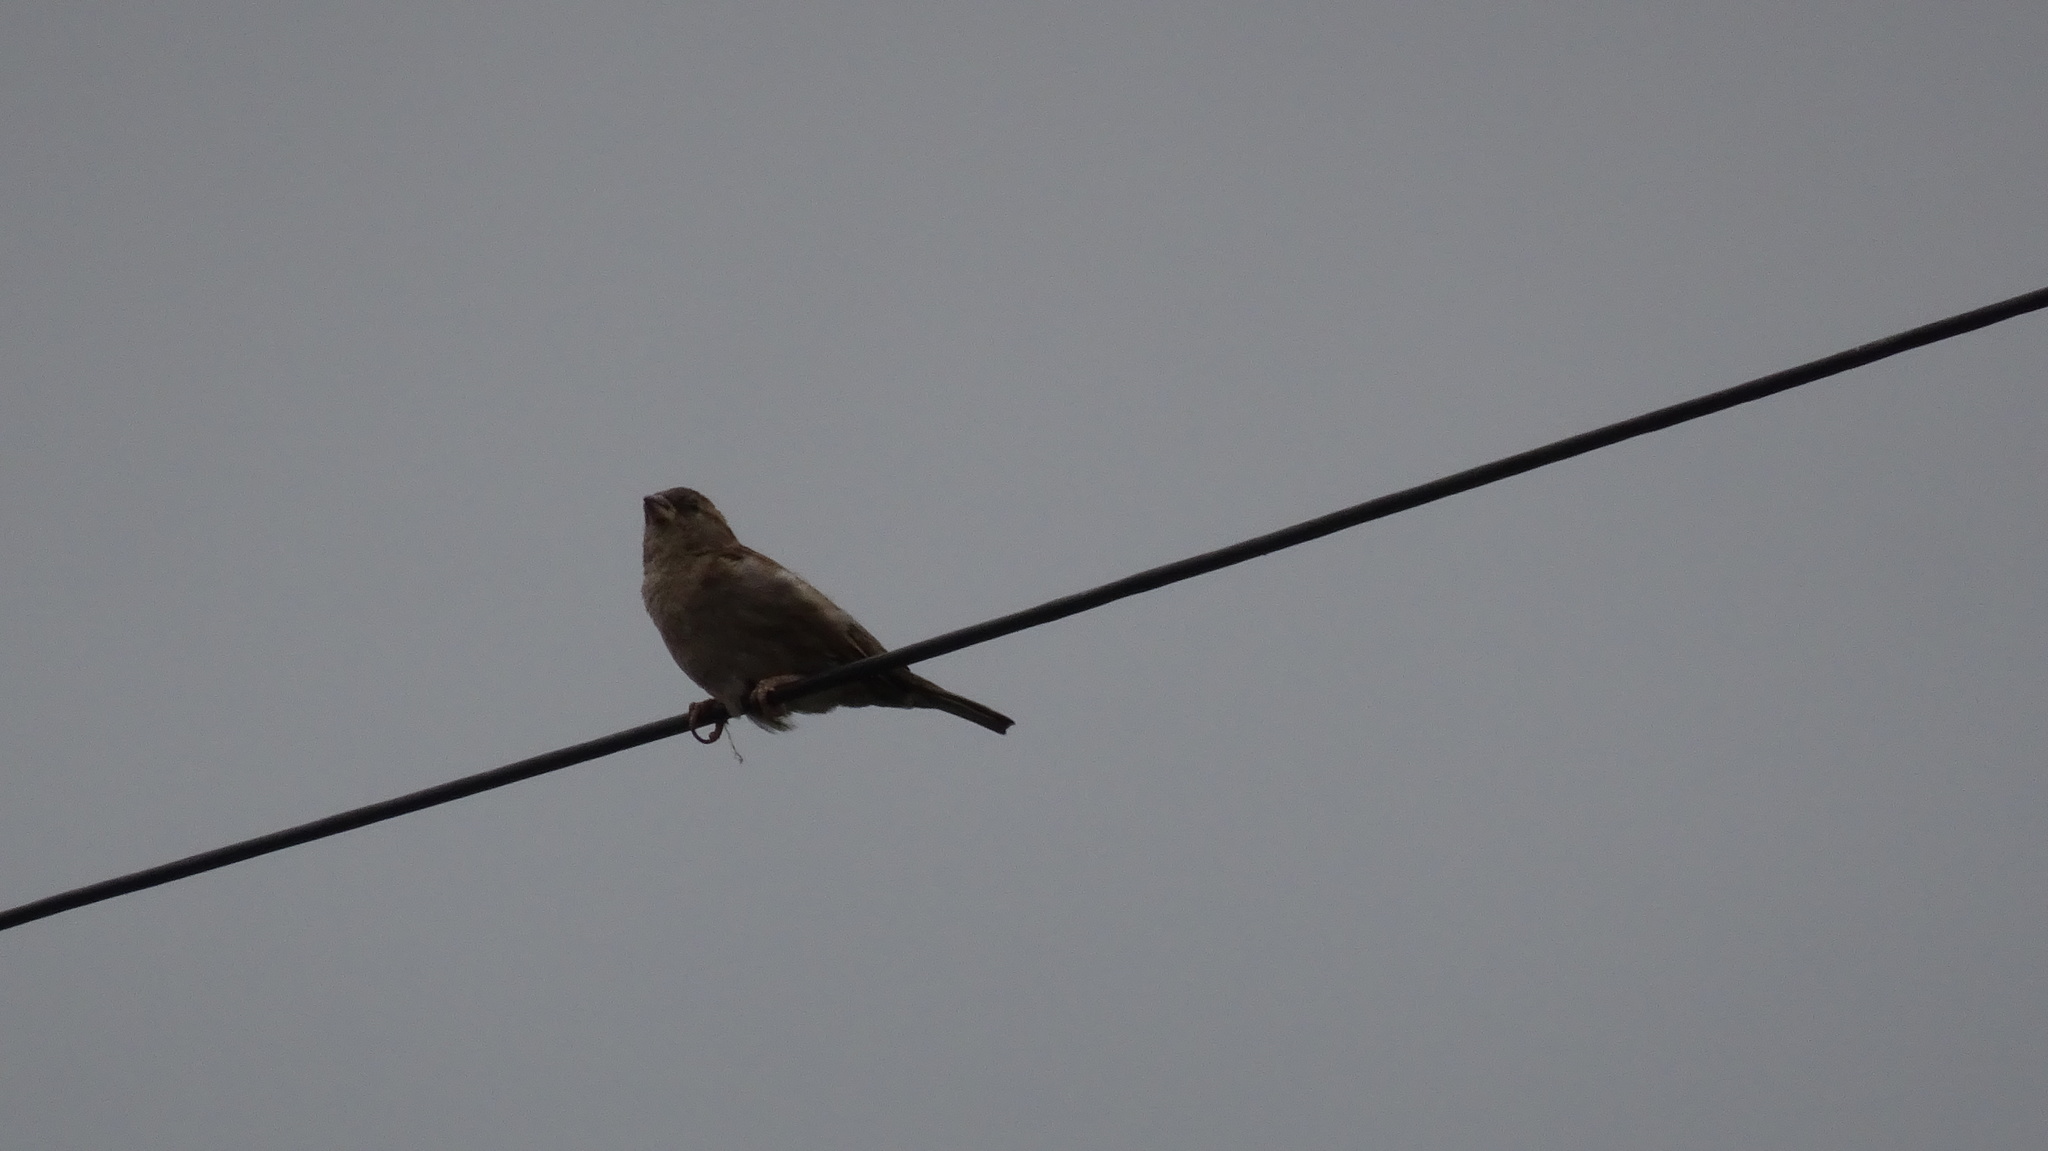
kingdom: Animalia
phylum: Chordata
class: Aves
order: Passeriformes
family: Passeridae
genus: Passer
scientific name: Passer domesticus
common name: House sparrow
